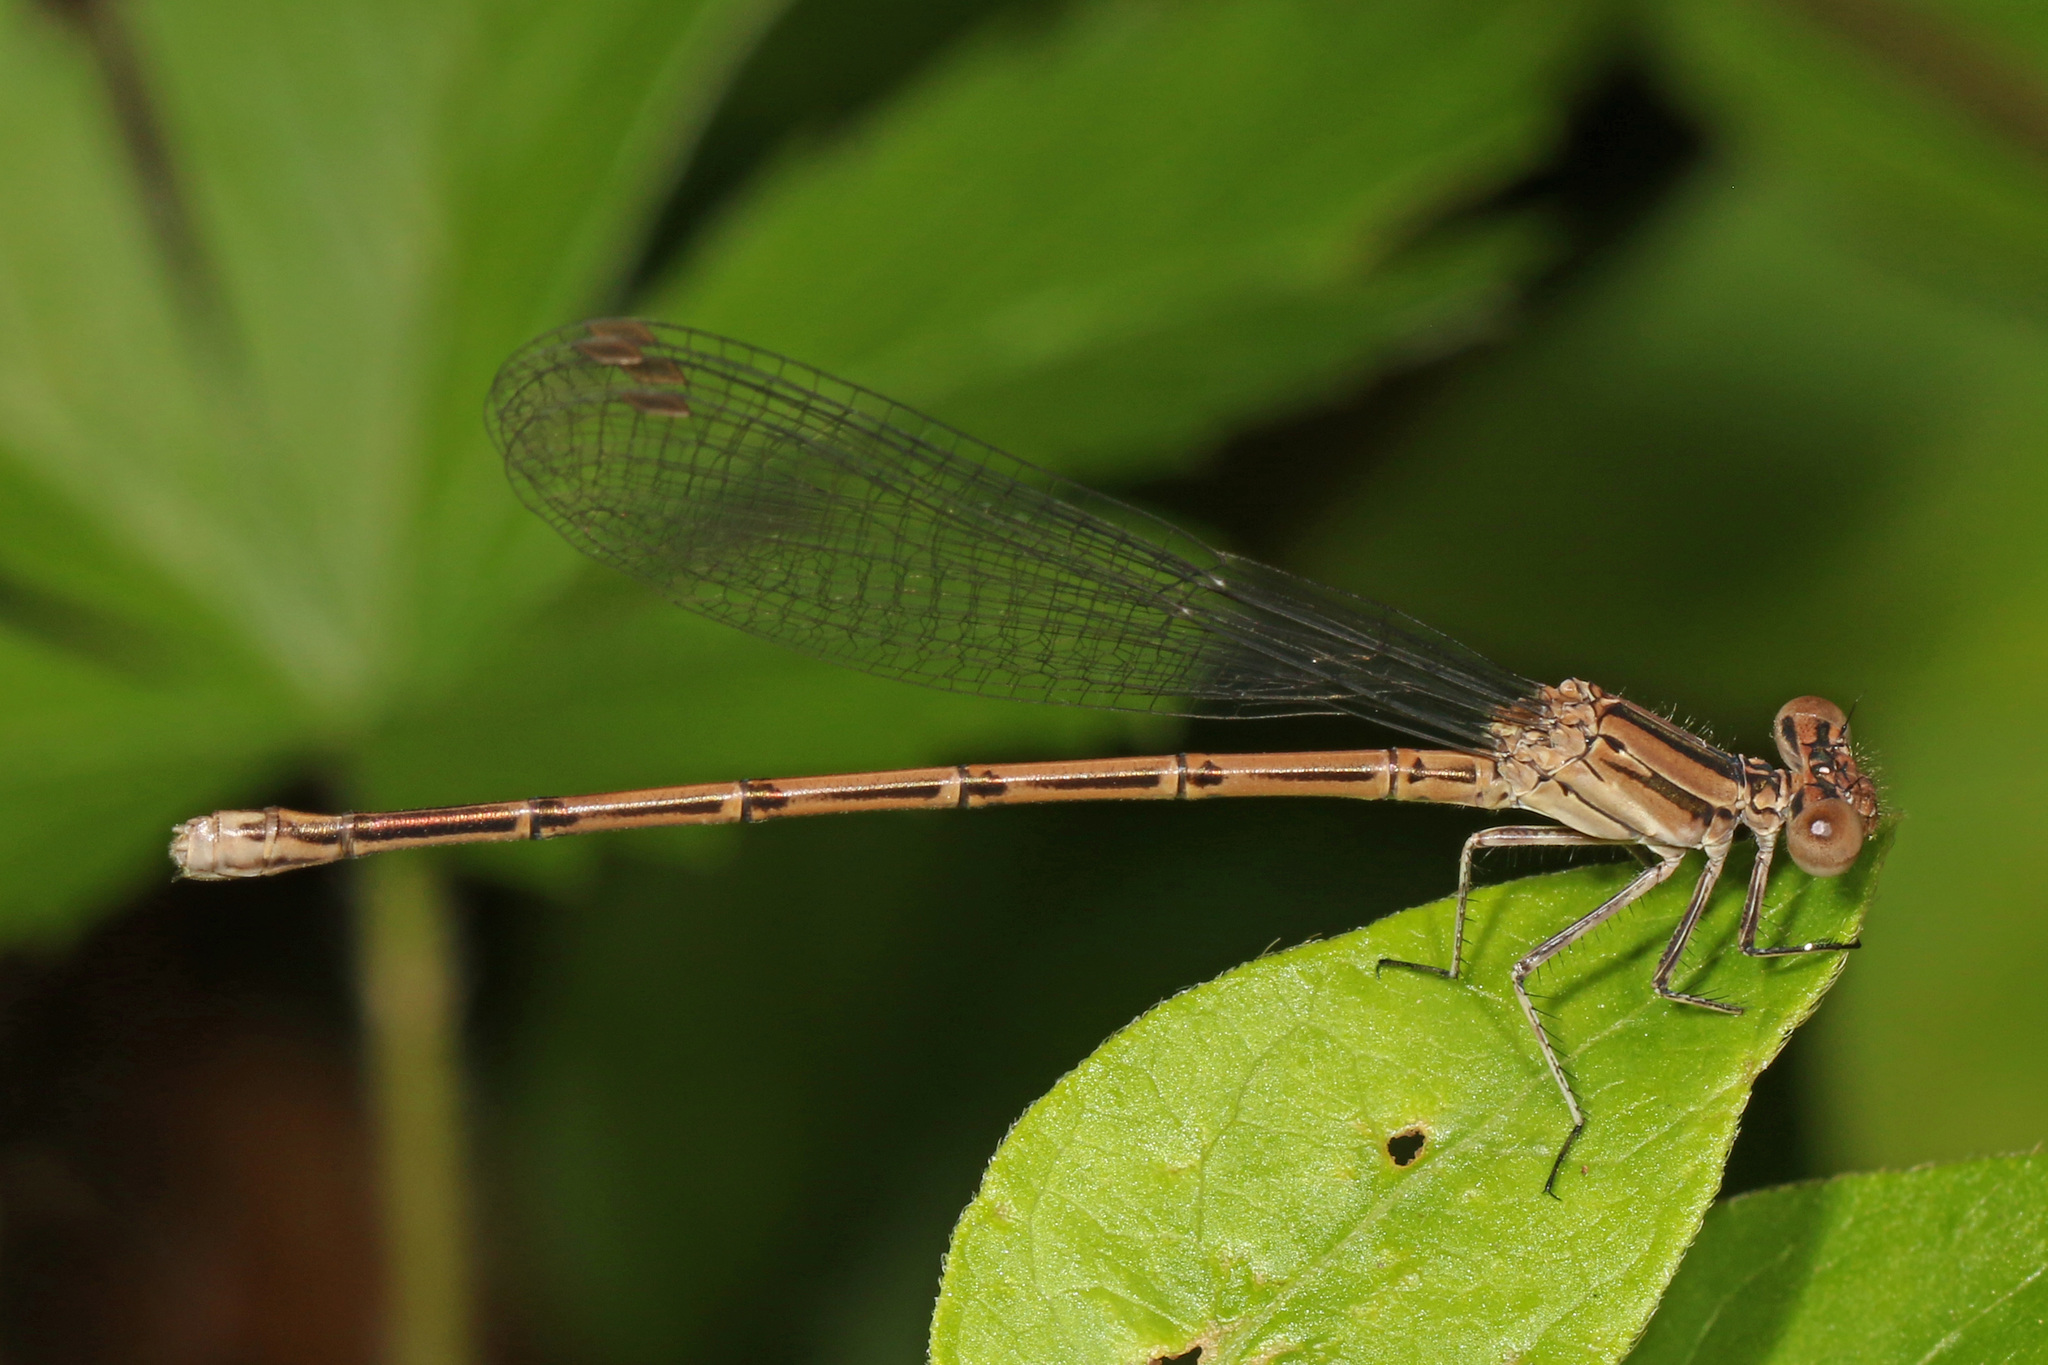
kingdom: Animalia
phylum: Arthropoda
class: Insecta
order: Odonata
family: Coenagrionidae
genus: Argia
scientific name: Argia fumipennis
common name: Variable dancer
